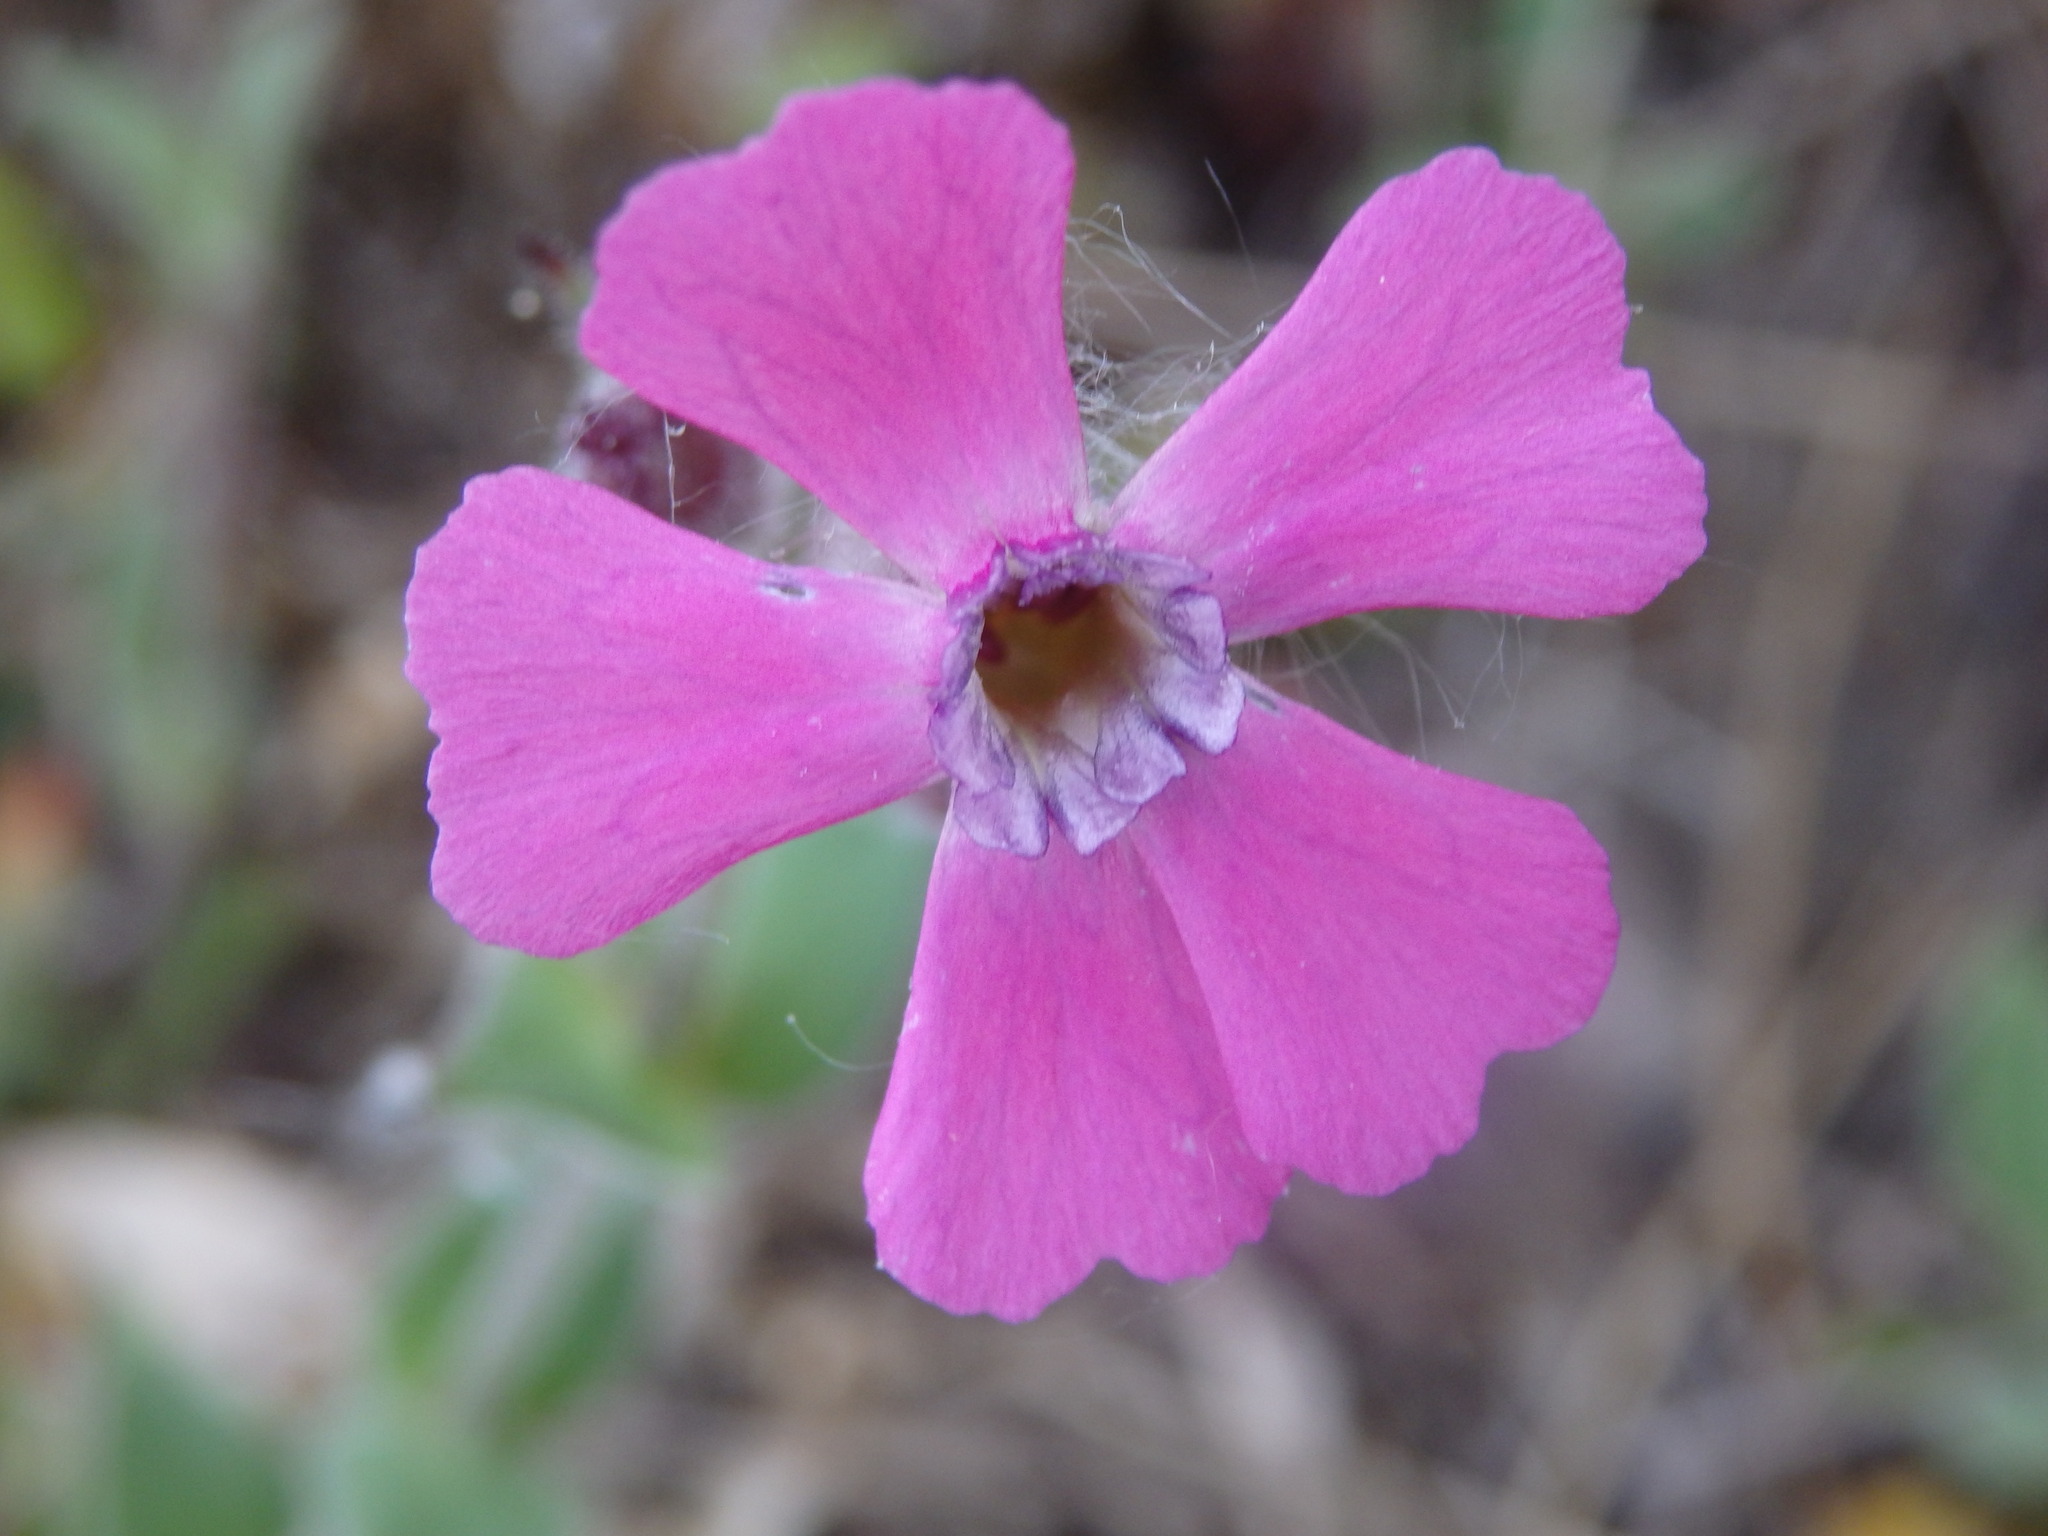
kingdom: Plantae
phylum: Tracheophyta
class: Magnoliopsida
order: Caryophyllales
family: Caryophyllaceae
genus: Silene
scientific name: Silene acutifolia
